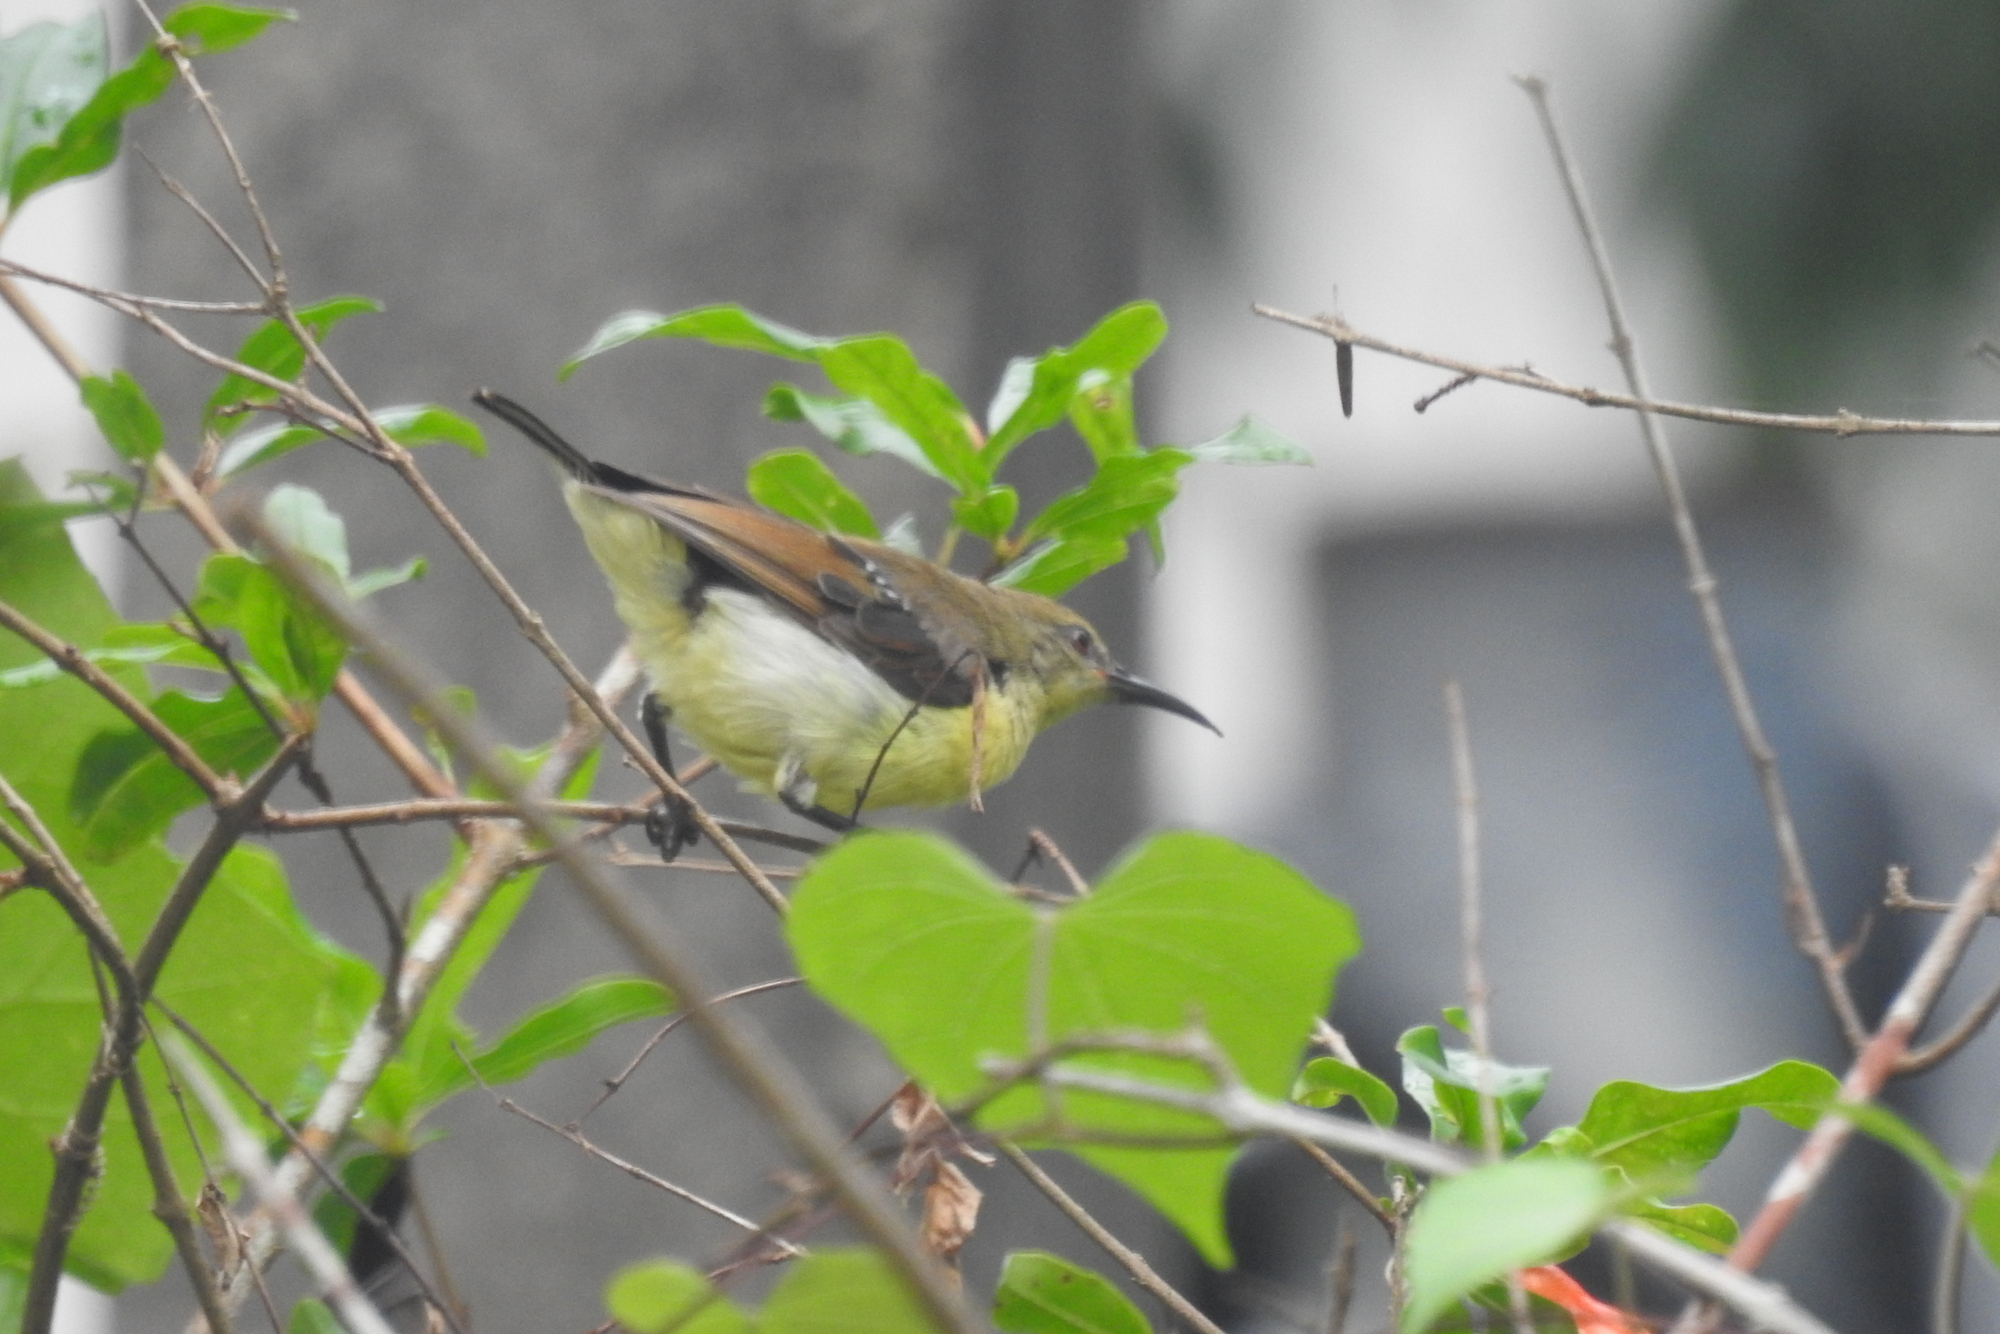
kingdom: Animalia
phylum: Chordata
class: Aves
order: Passeriformes
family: Nectariniidae
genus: Leptocoma
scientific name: Leptocoma zeylonica
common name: Purple-rumped sunbird
